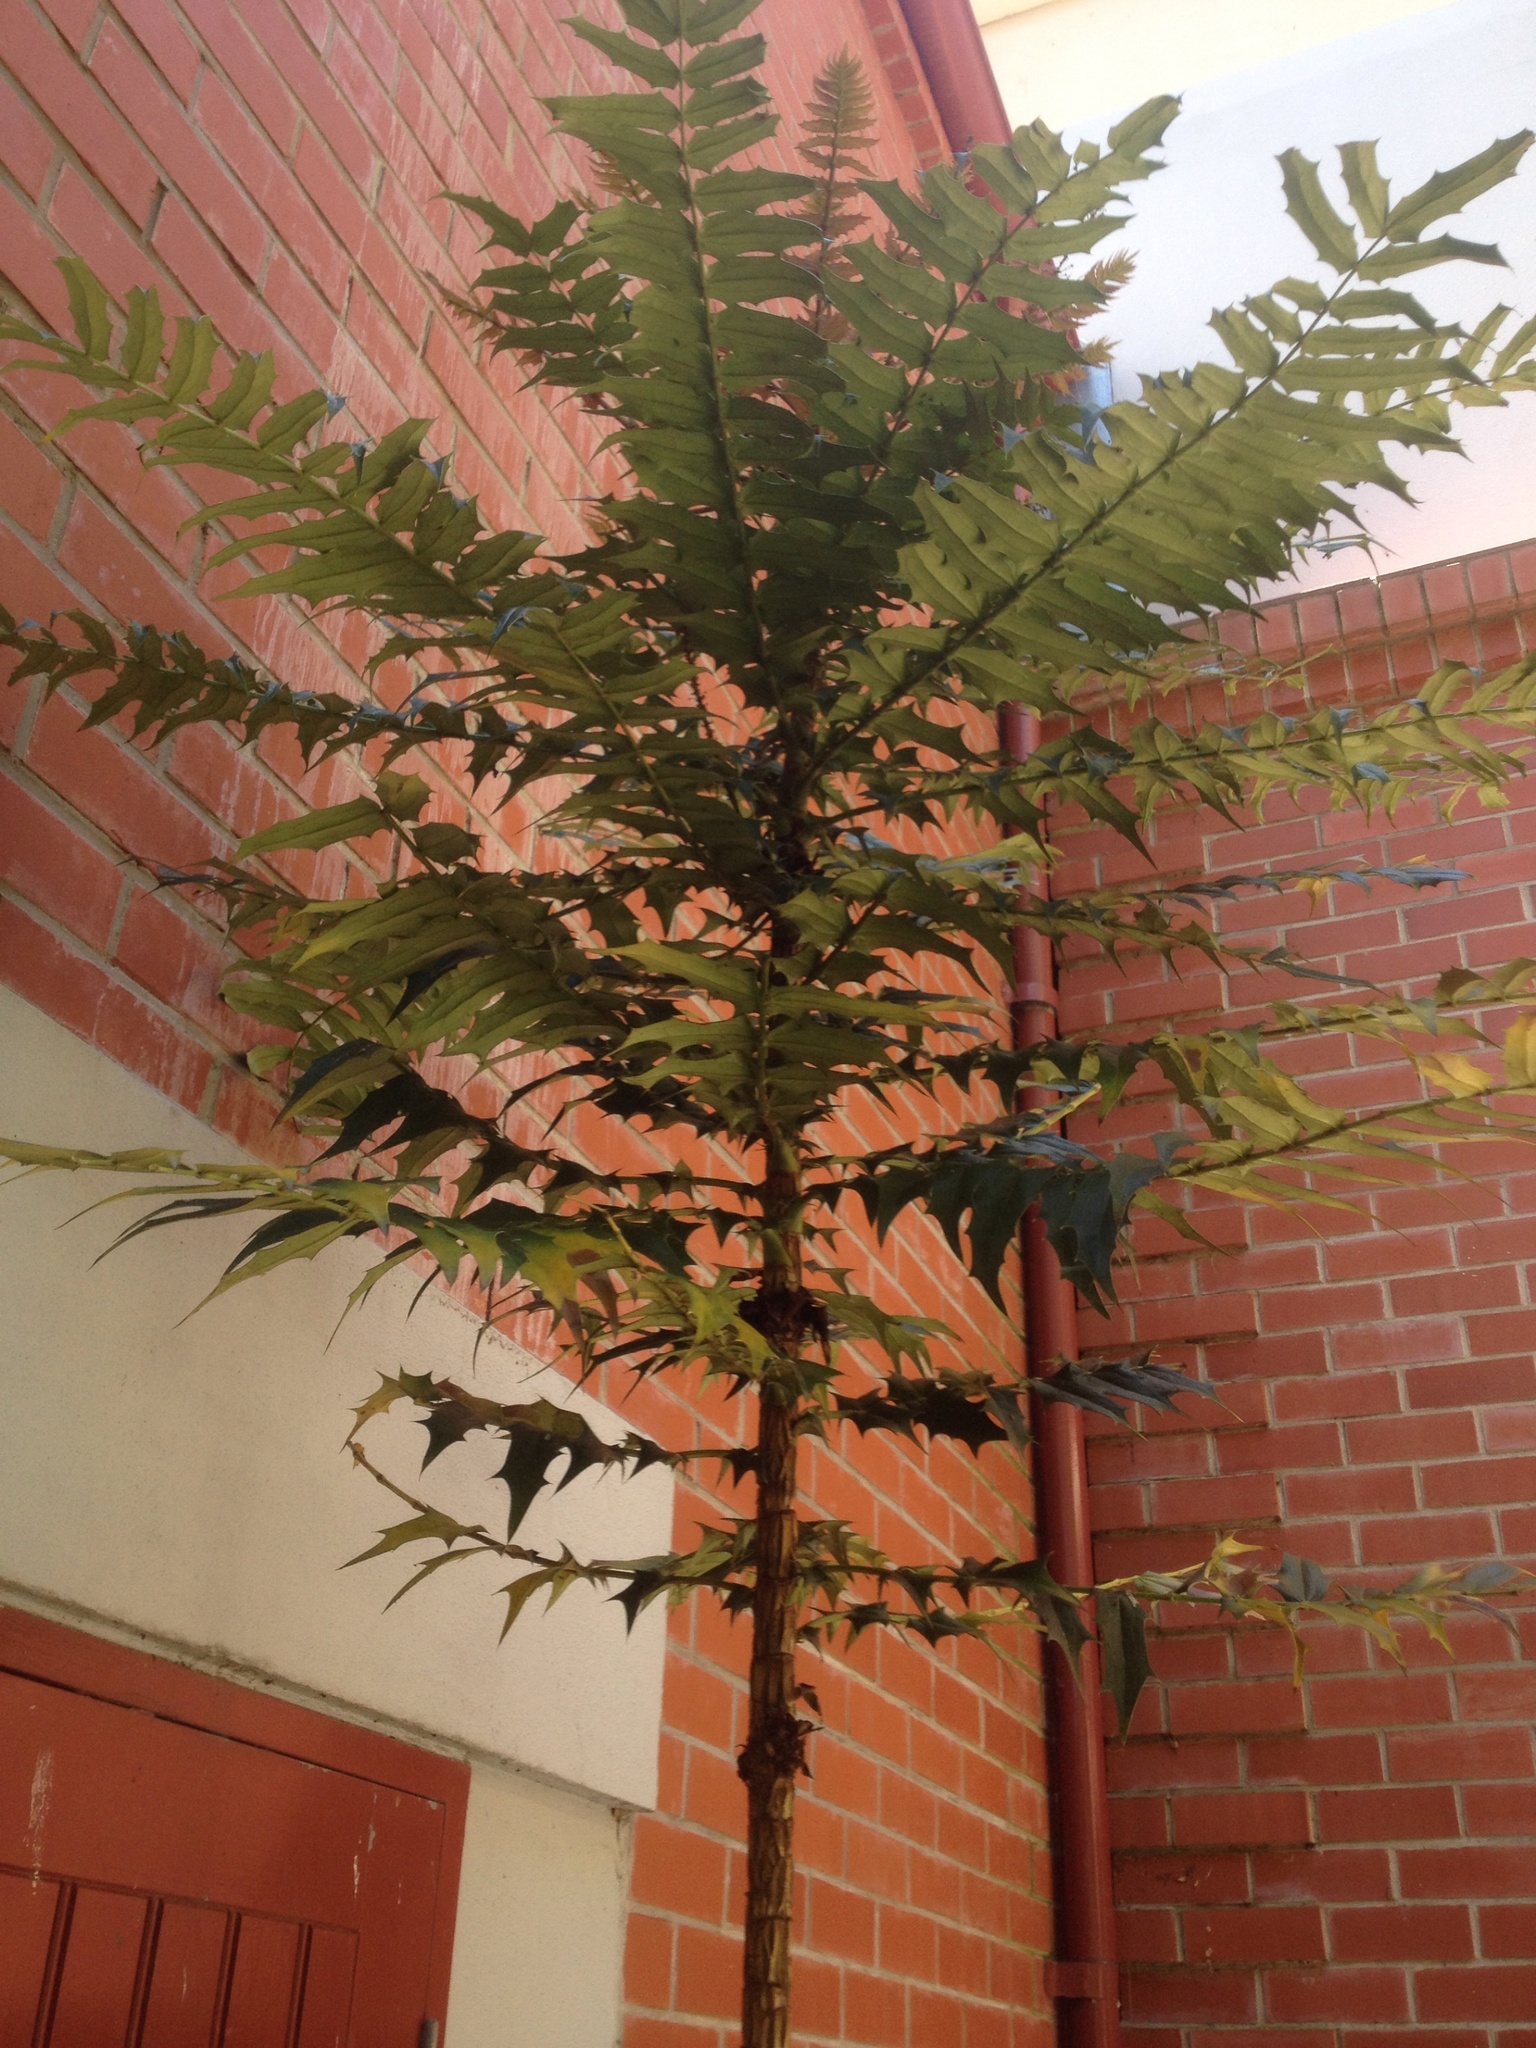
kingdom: Plantae
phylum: Tracheophyta
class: Magnoliopsida
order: Ranunculales
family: Berberidaceae
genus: Mahonia
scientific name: Mahonia oiwakensis
